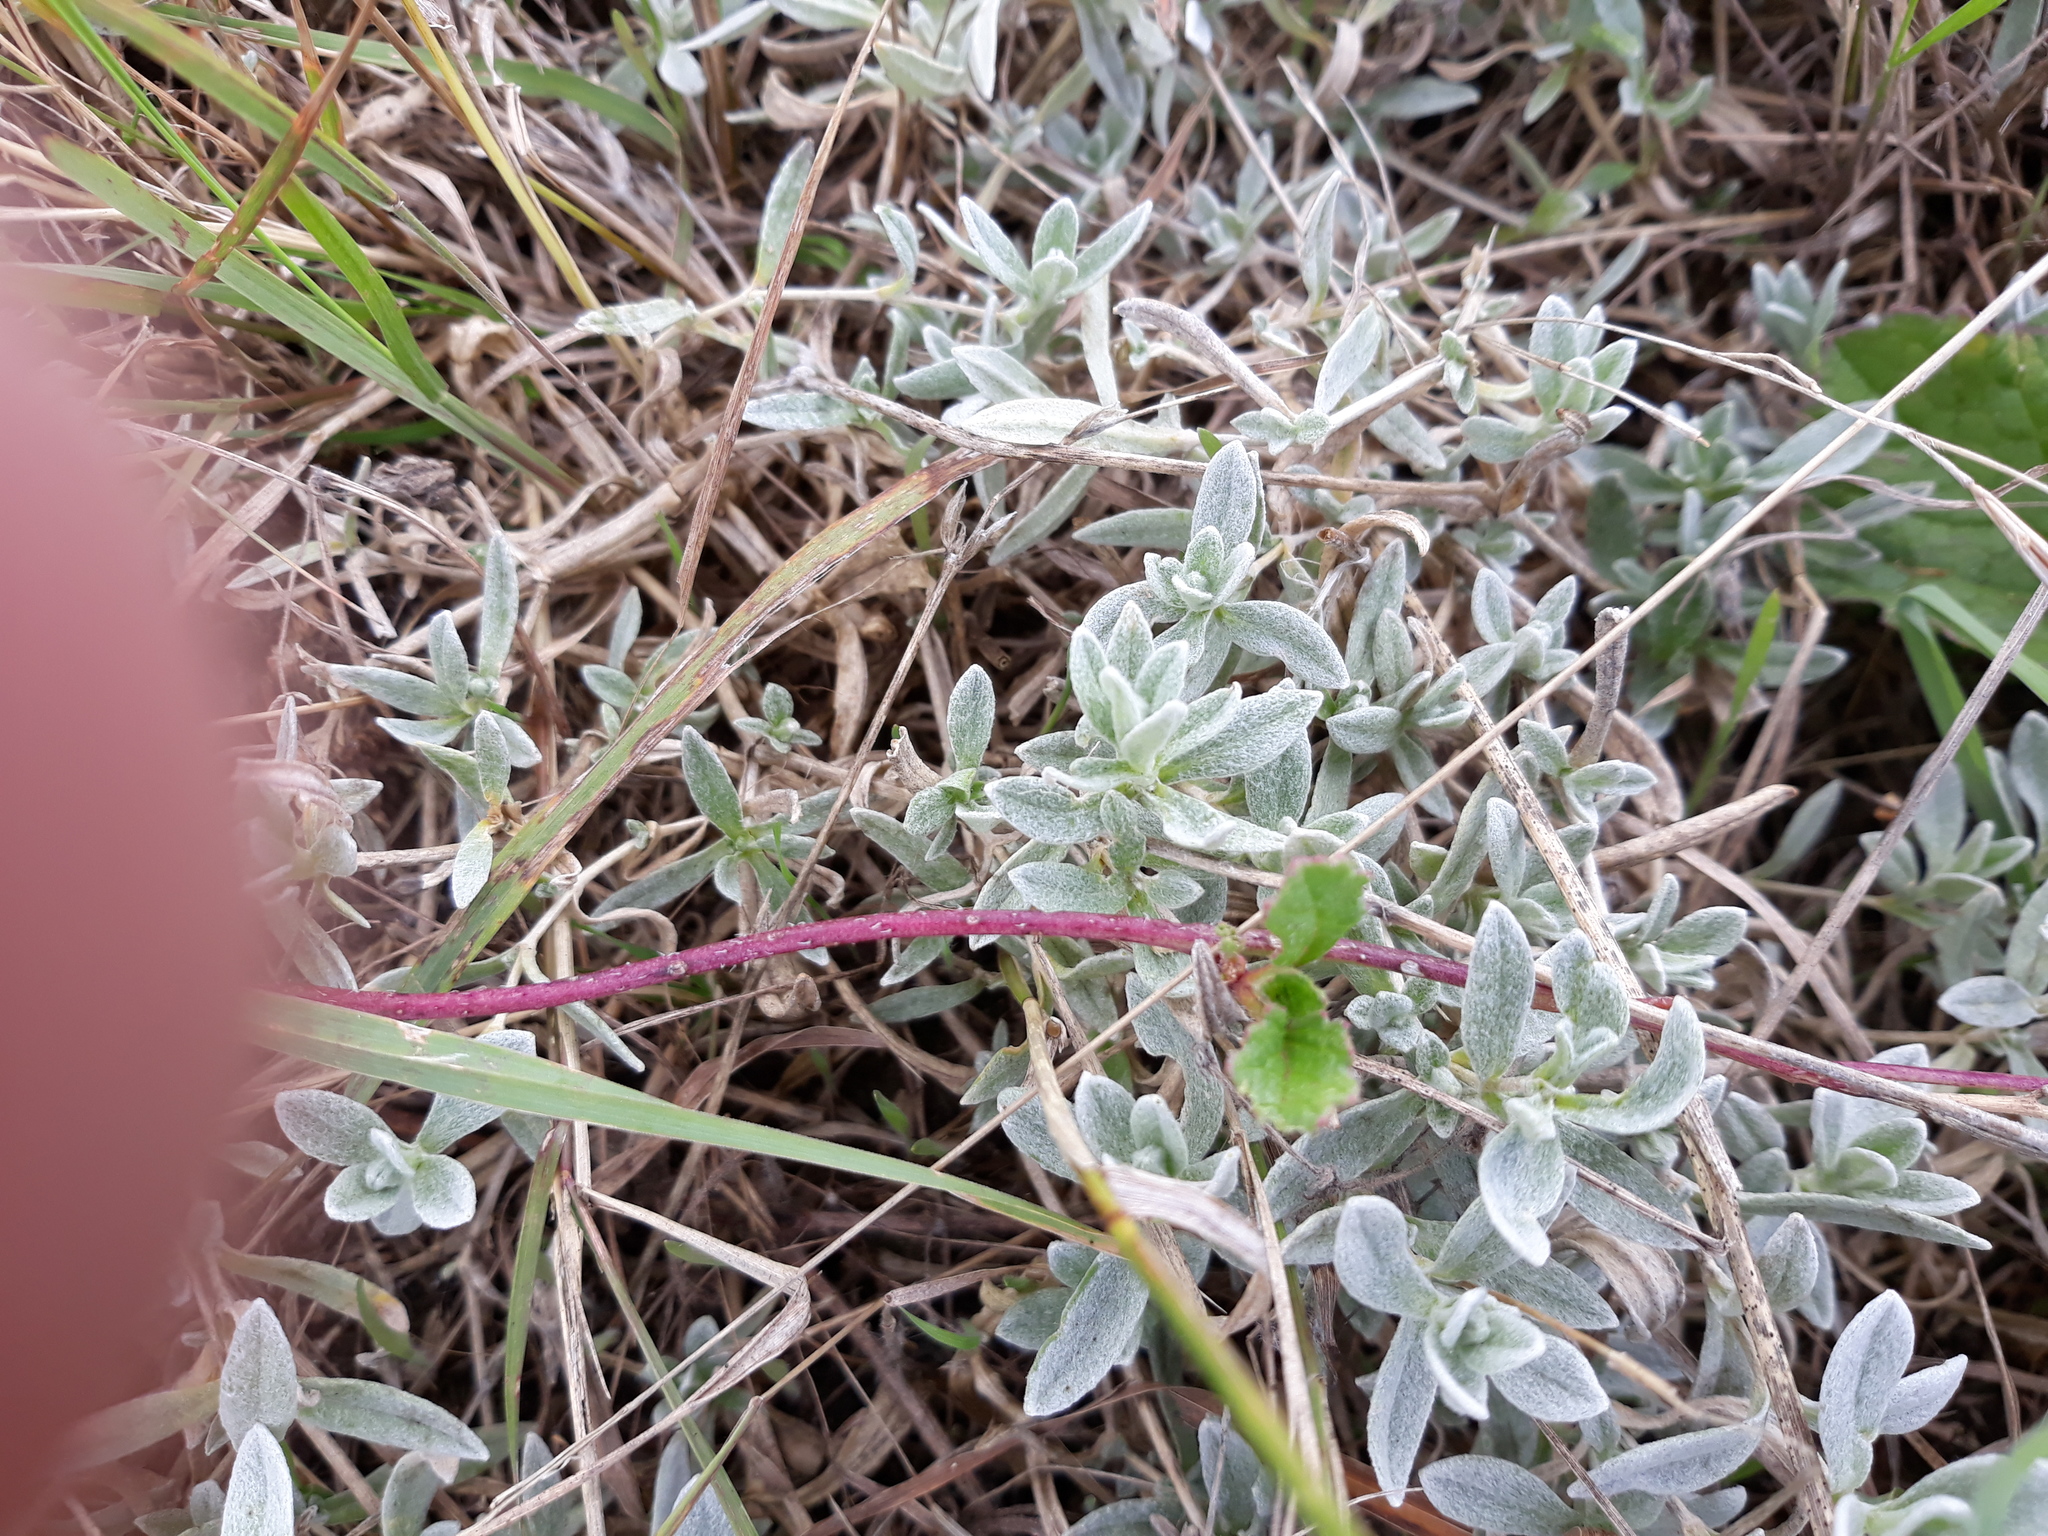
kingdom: Plantae
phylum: Tracheophyta
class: Magnoliopsida
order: Caryophyllales
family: Caryophyllaceae
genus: Cerastium
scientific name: Cerastium tomentosum
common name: Snow-in-summer
